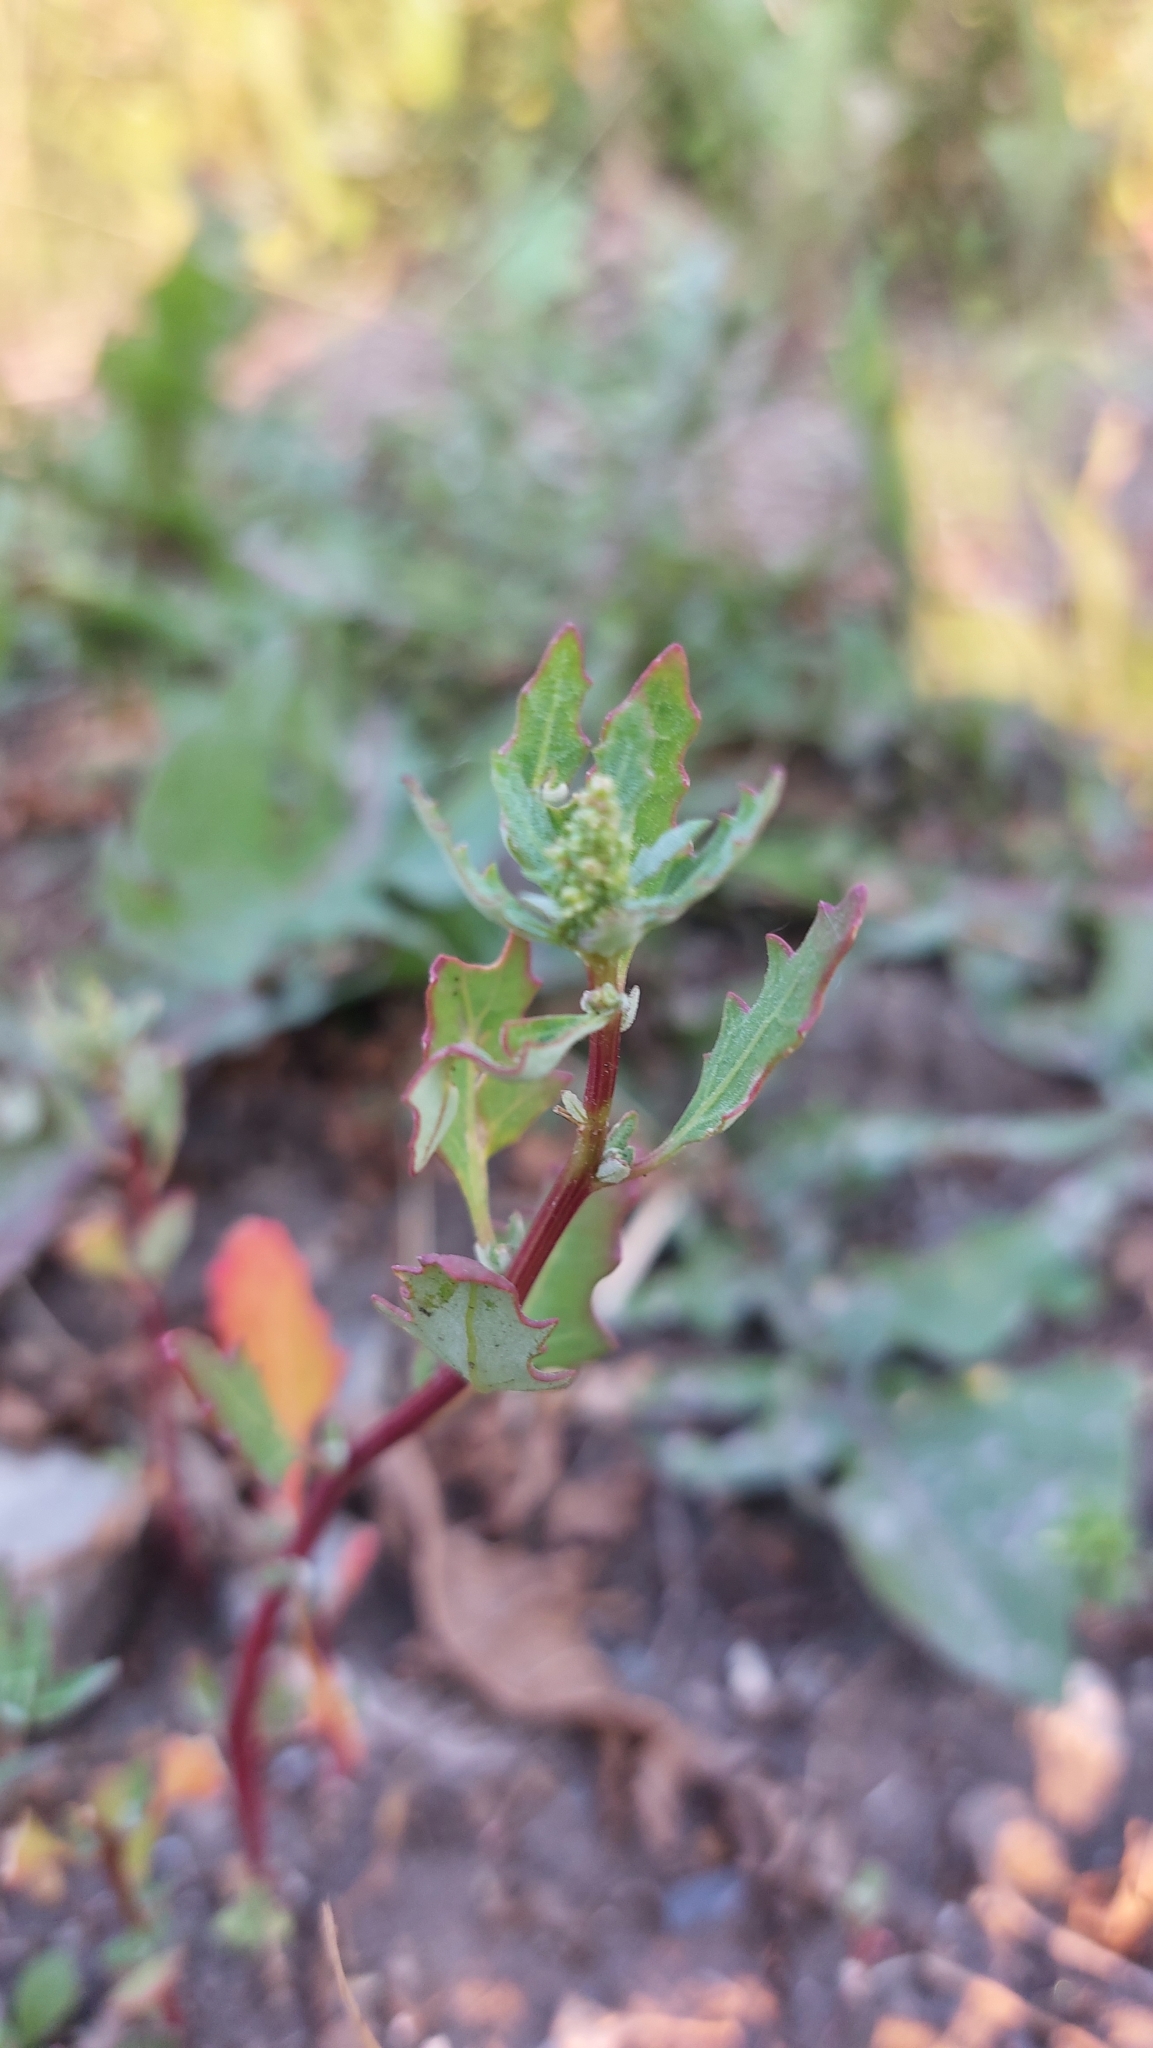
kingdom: Plantae
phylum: Tracheophyta
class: Magnoliopsida
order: Caryophyllales
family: Amaranthaceae
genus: Oxybasis
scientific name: Oxybasis glauca
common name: Glaucous goosefoot
